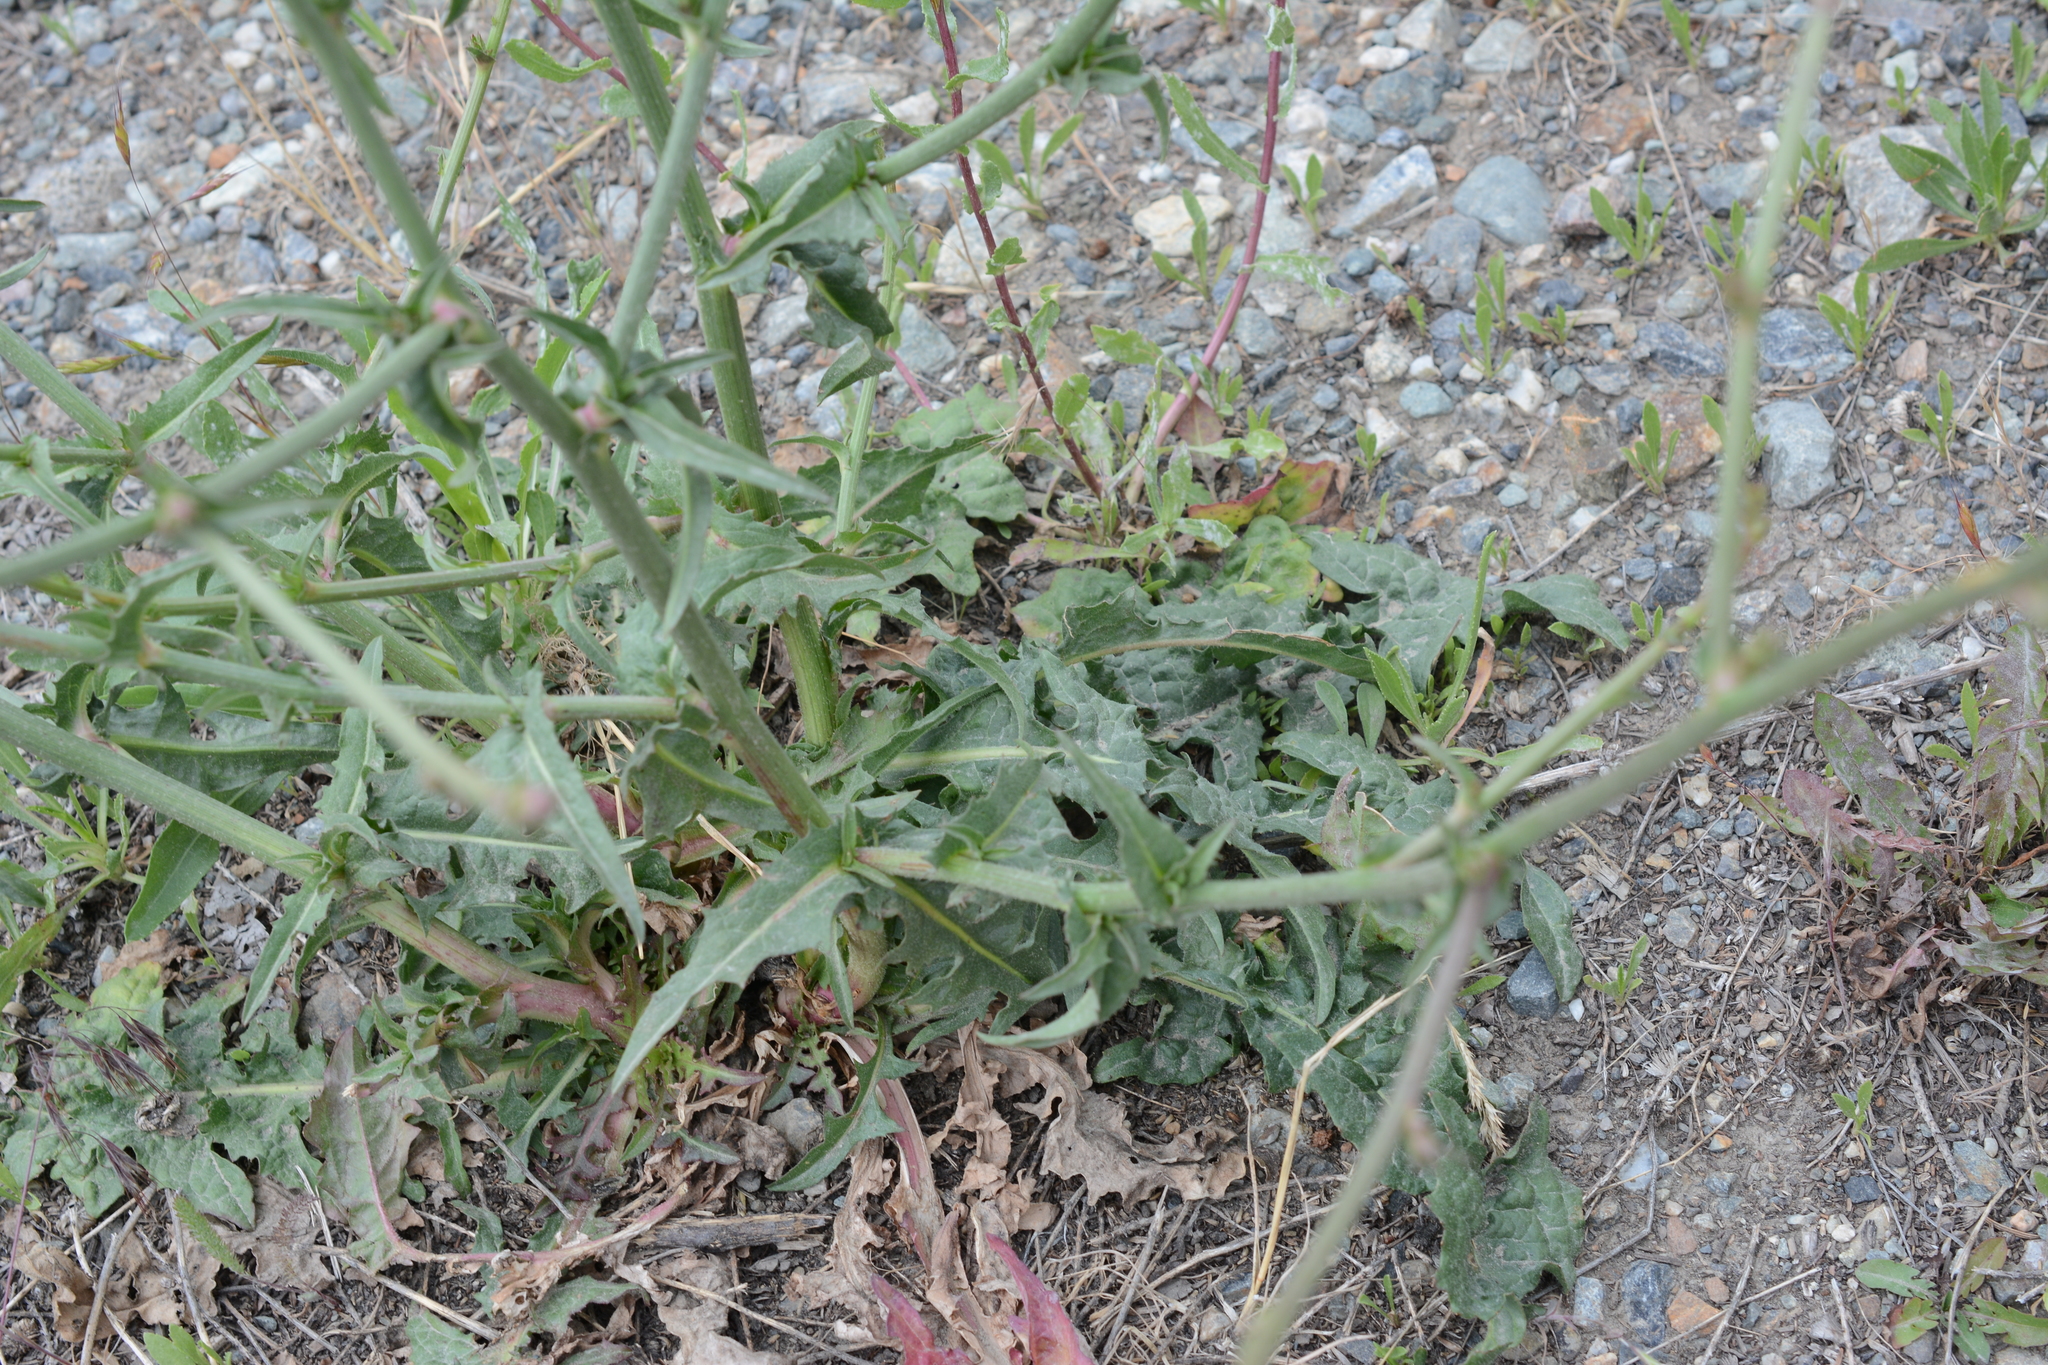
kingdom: Plantae
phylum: Tracheophyta
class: Magnoliopsida
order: Asterales
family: Asteraceae
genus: Cichorium
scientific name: Cichorium intybus
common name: Chicory
